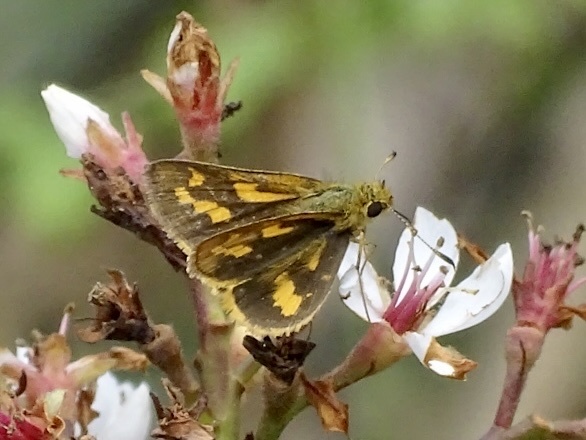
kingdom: Animalia
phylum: Arthropoda
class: Insecta
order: Lepidoptera
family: Hesperiidae
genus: Potanthus
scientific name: Potanthus trachala
